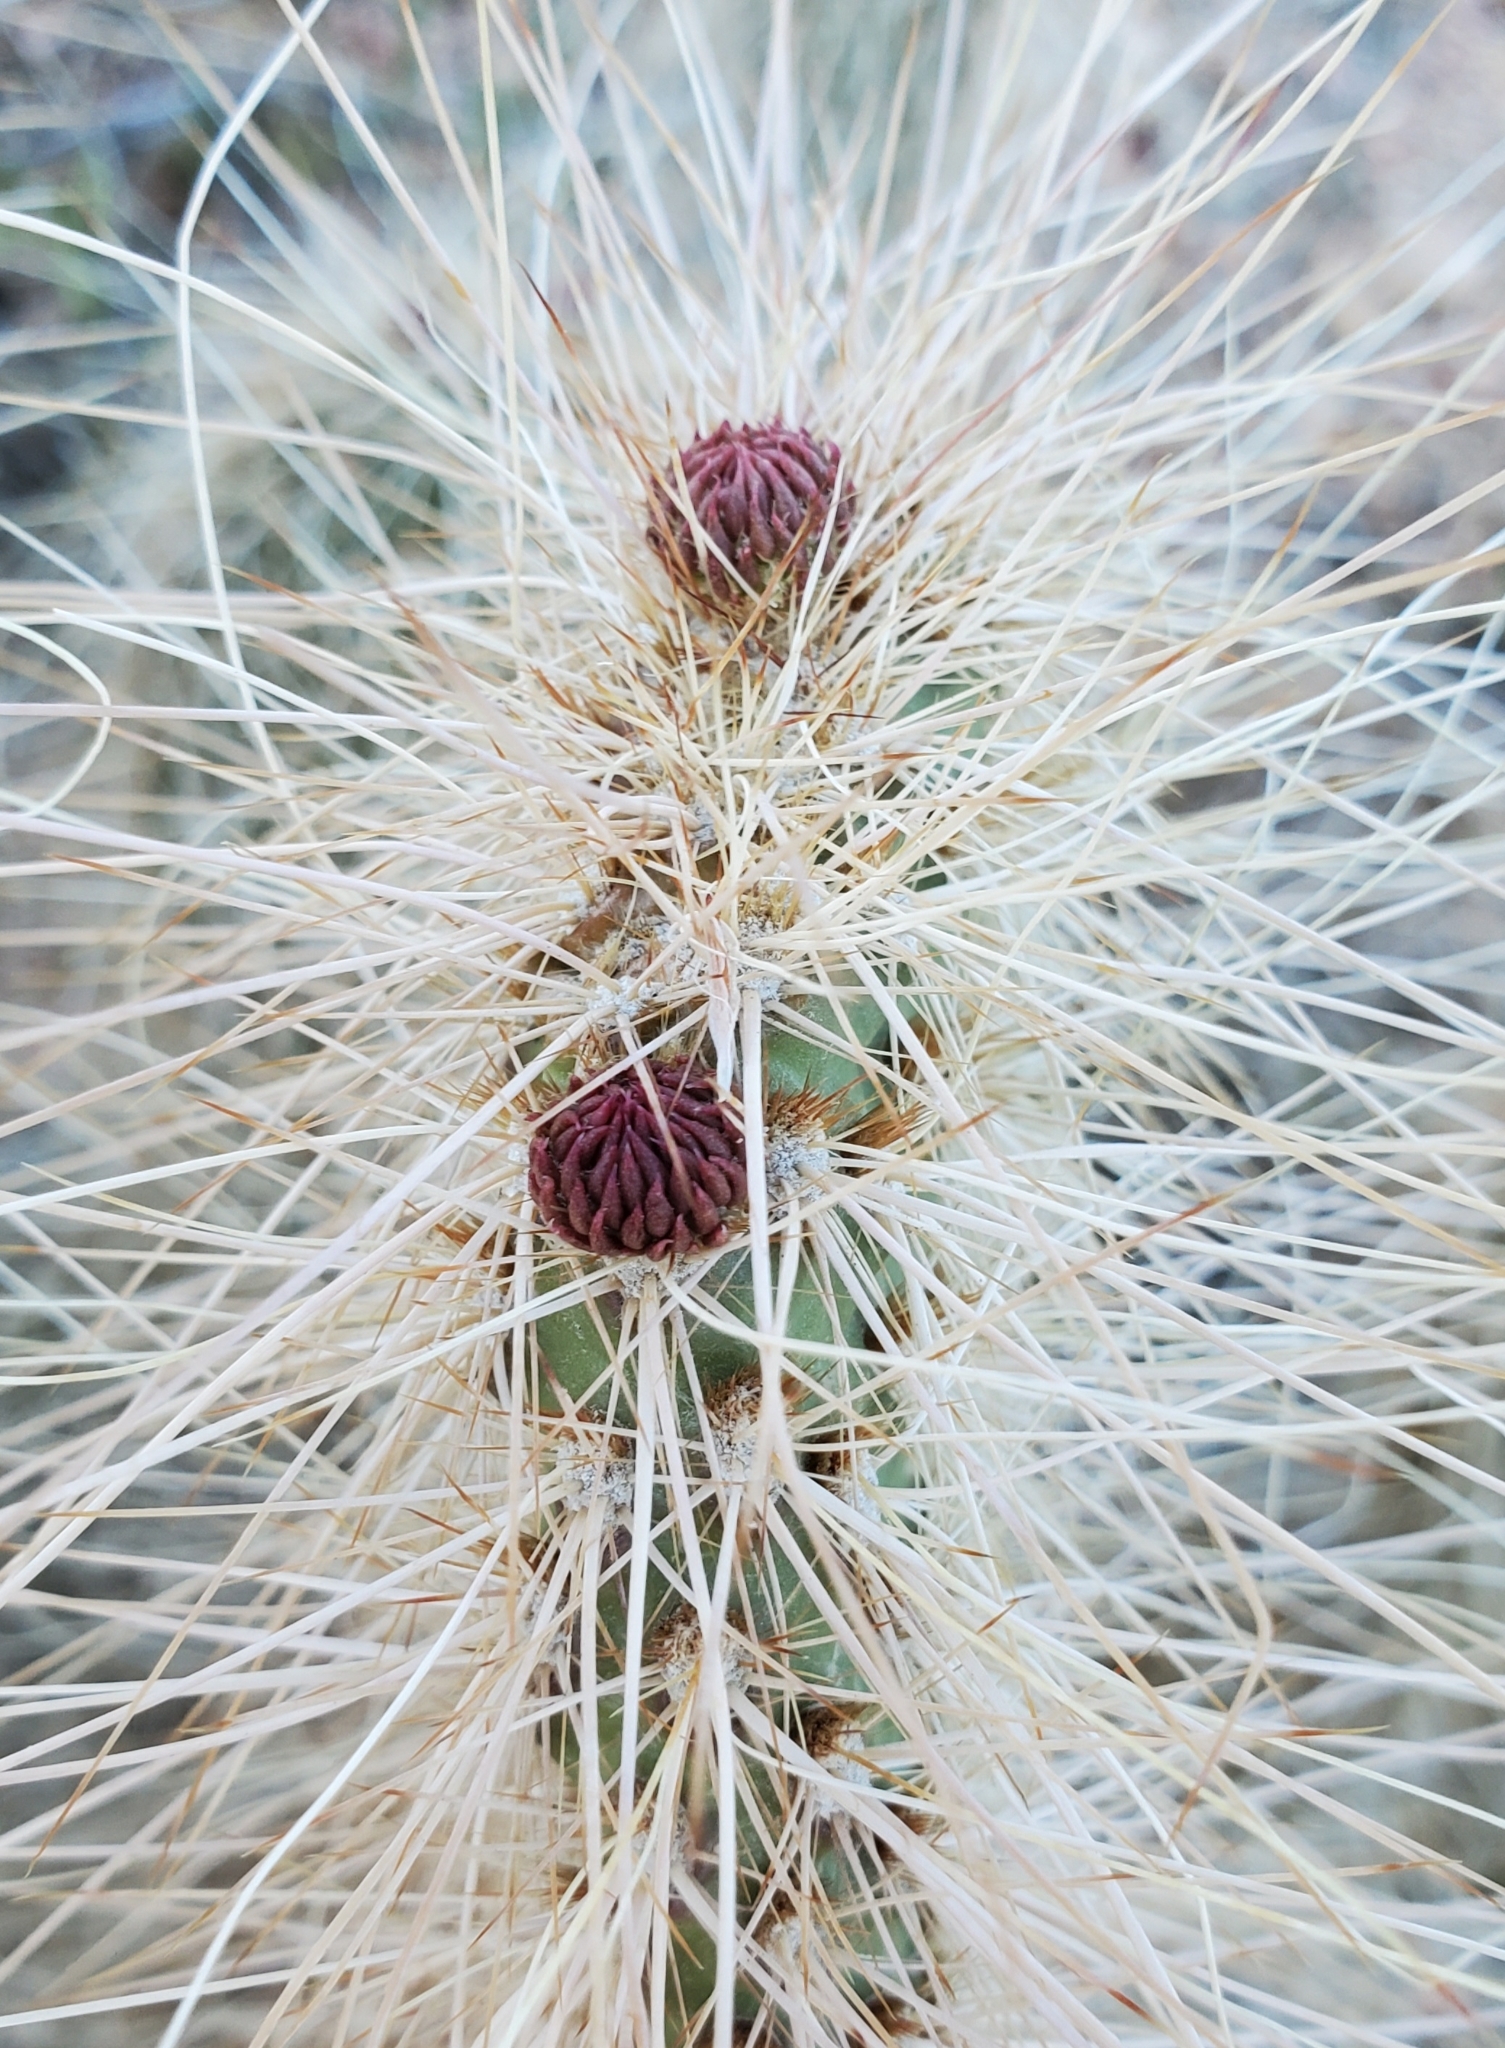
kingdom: Plantae
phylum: Tracheophyta
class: Magnoliopsida
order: Caryophyllales
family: Cactaceae
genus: Opuntia
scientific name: Opuntia polyacantha
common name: Plains prickly-pear
